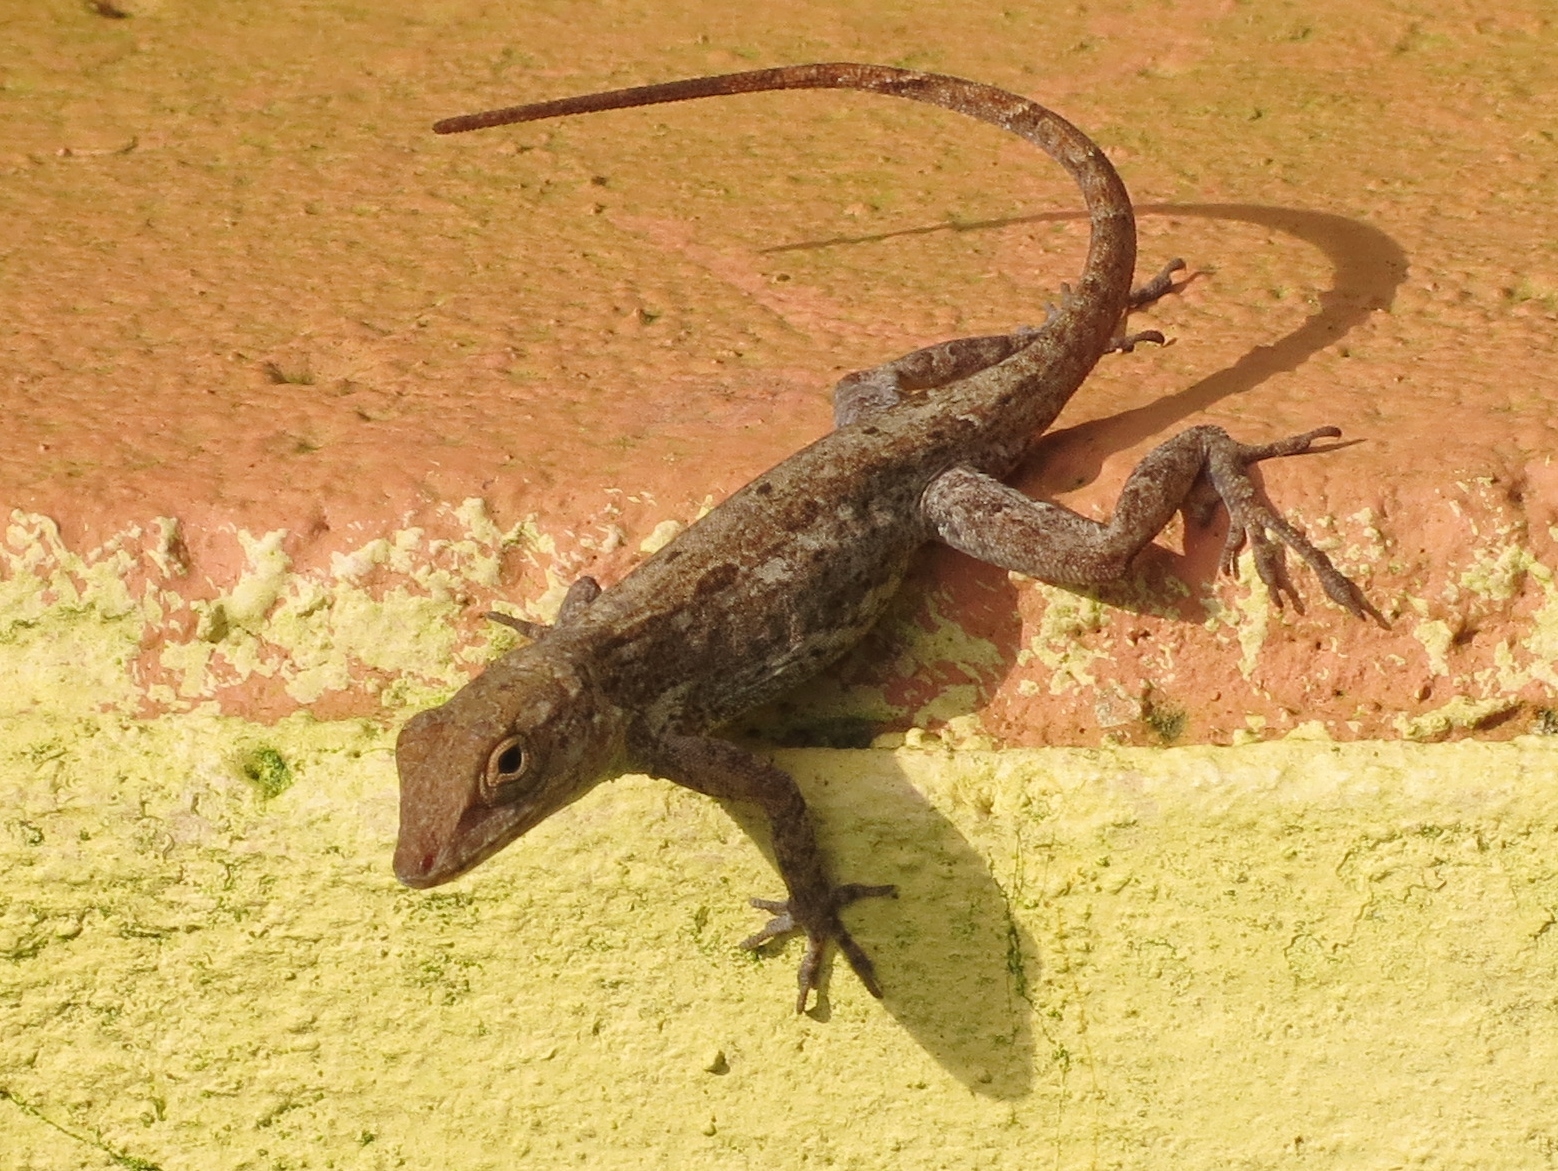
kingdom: Animalia
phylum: Chordata
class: Squamata
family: Dactyloidae
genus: Anolis
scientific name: Anolis cristatellus
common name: Crested anole
